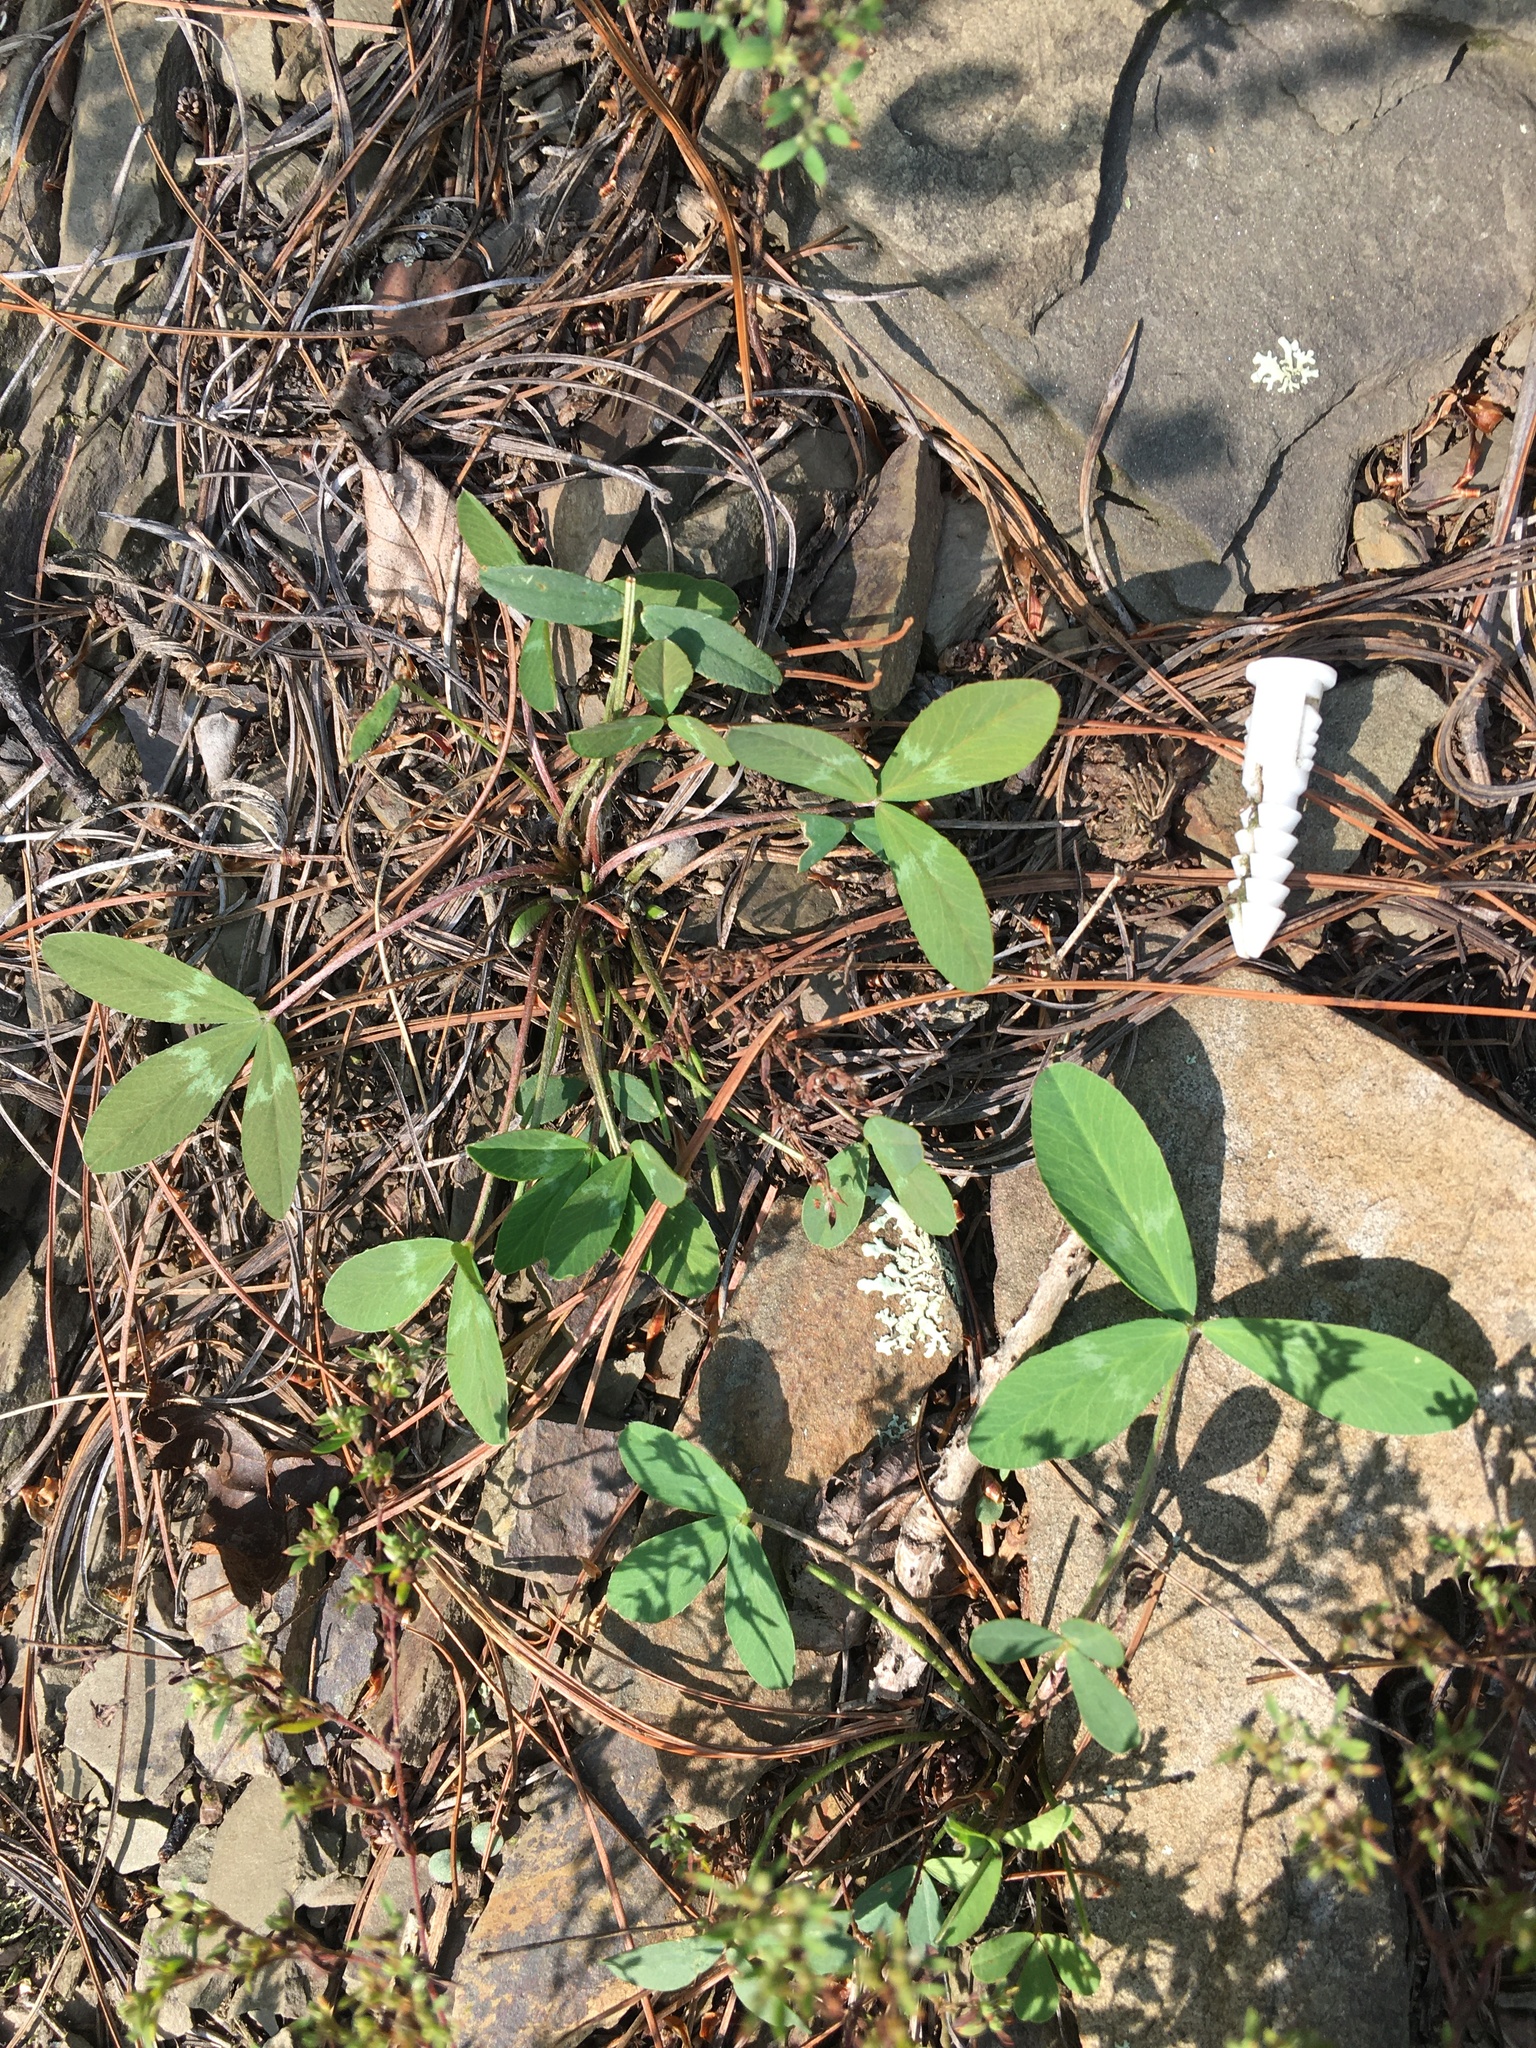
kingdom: Plantae
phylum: Tracheophyta
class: Magnoliopsida
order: Fabales
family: Fabaceae
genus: Trifolium
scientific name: Trifolium virginicum
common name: Kate's mountain clover
